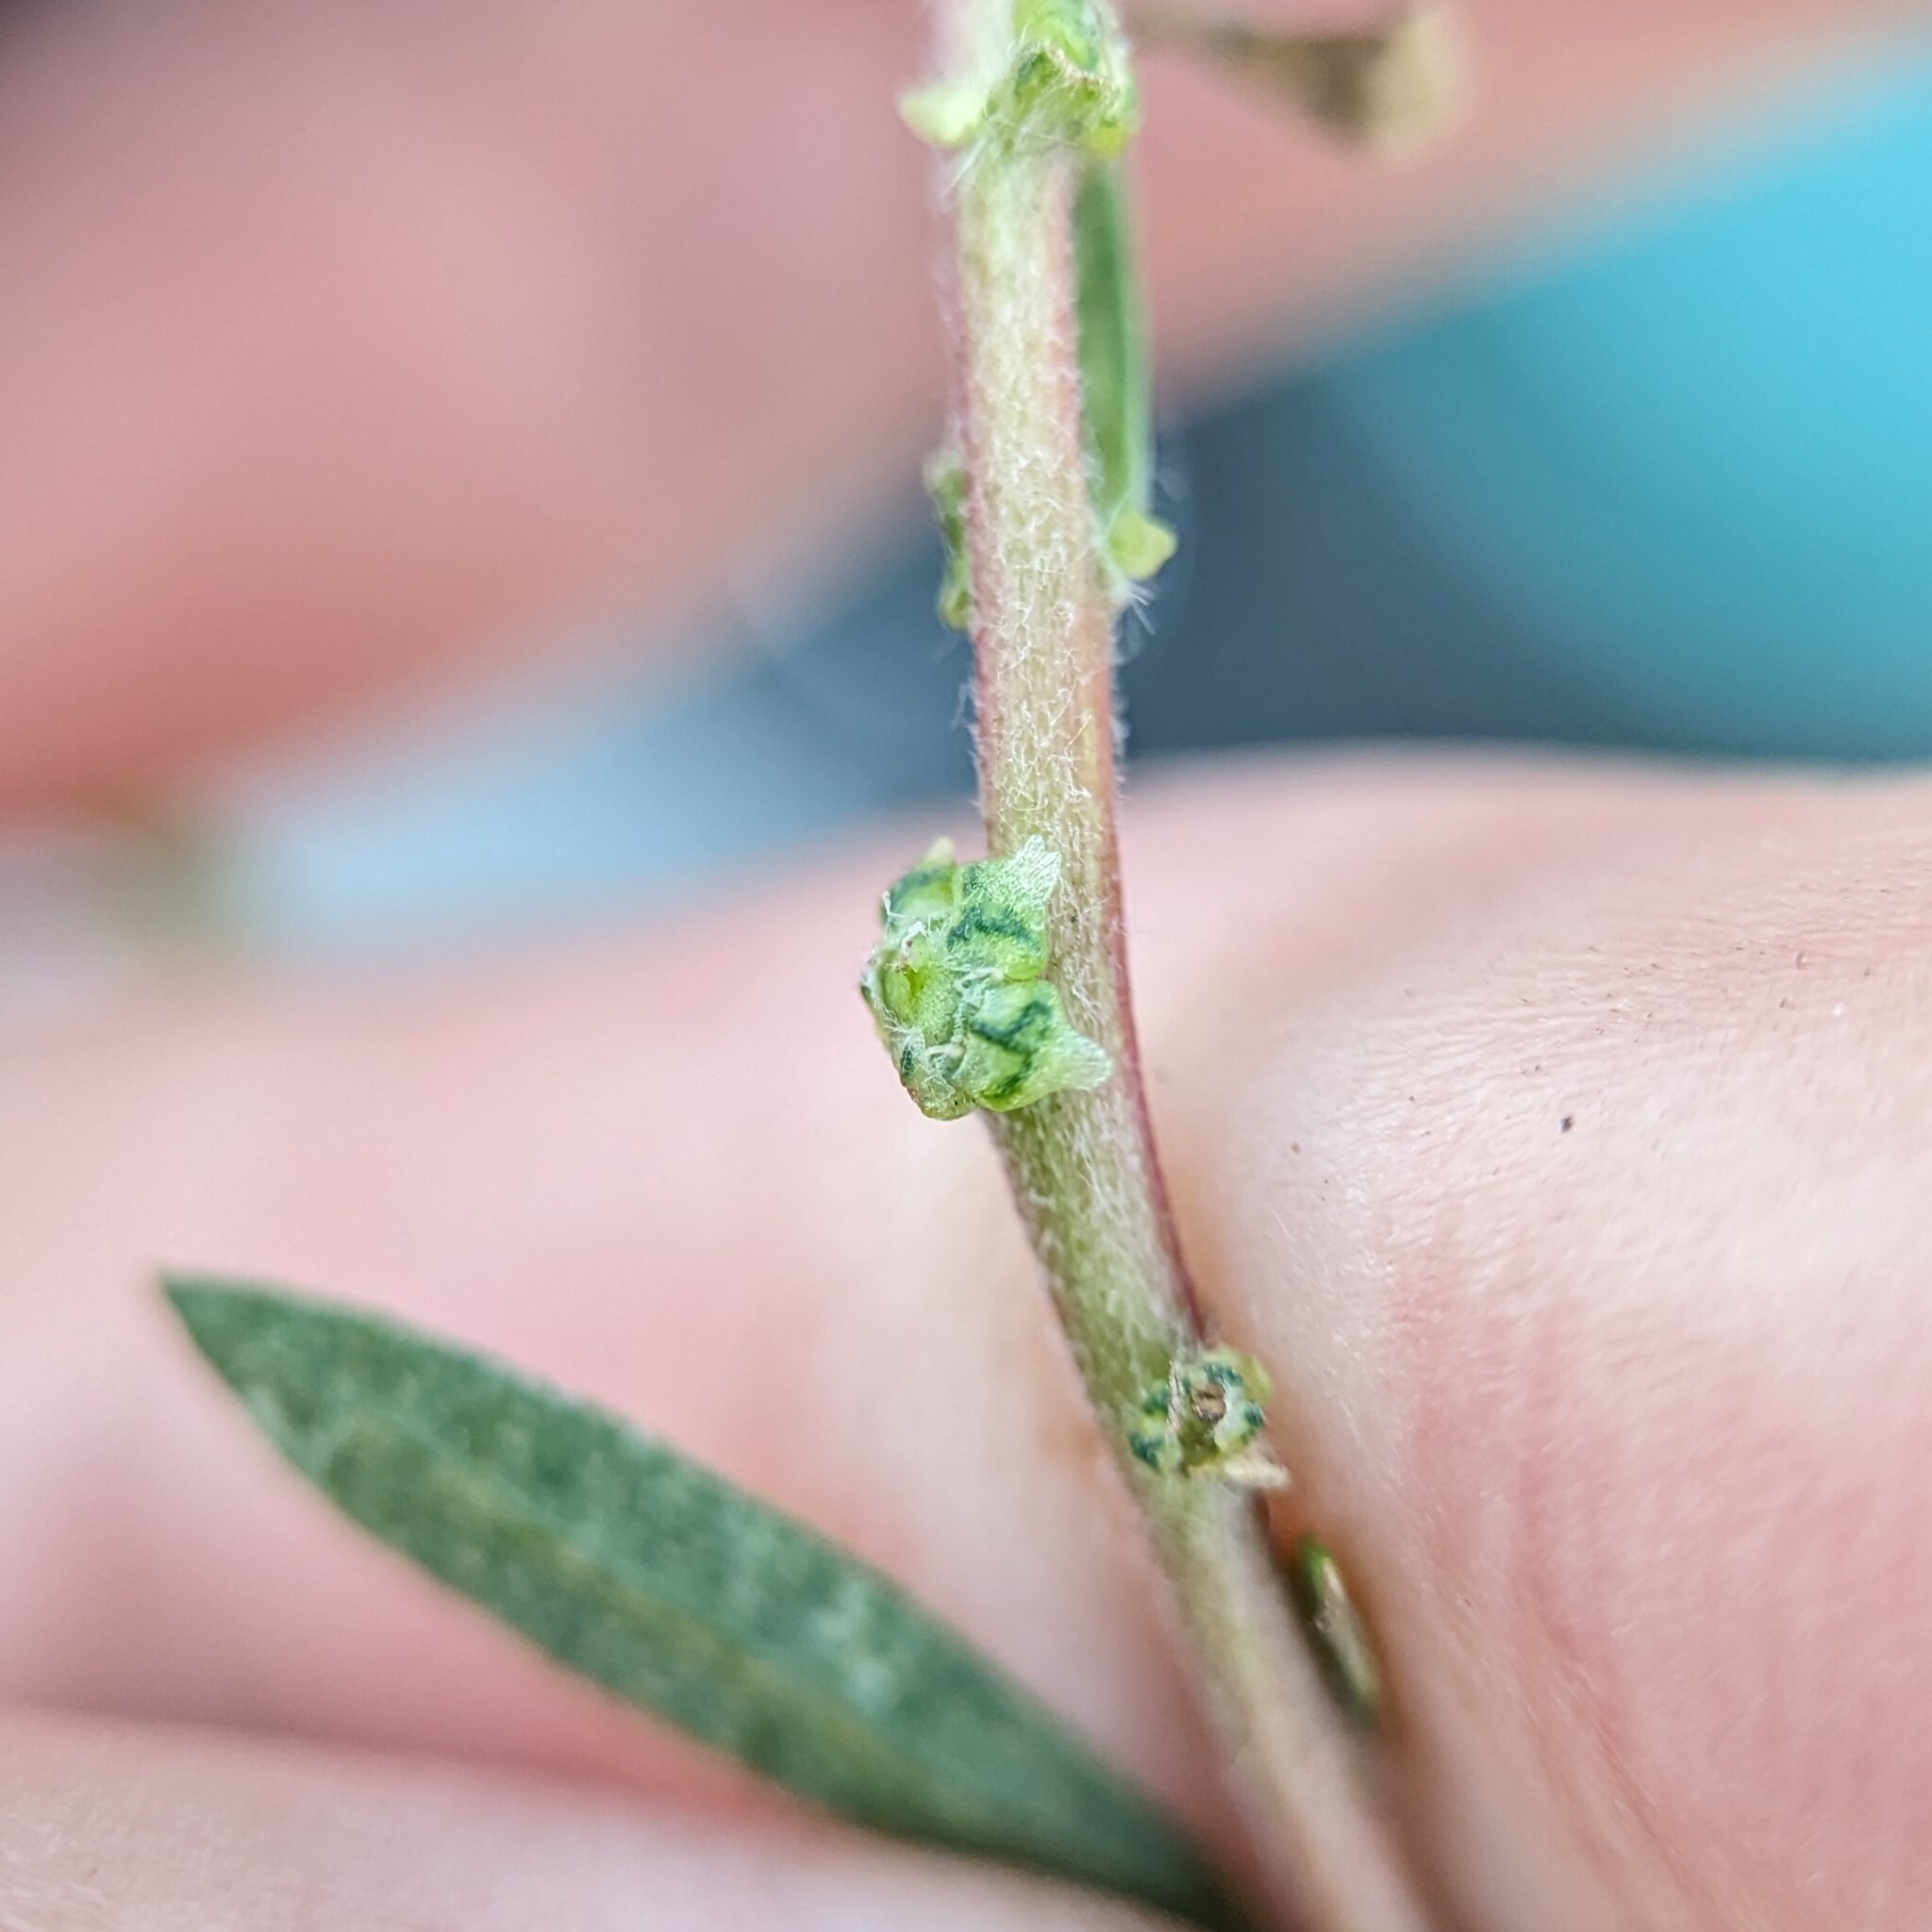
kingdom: Plantae
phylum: Tracheophyta
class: Magnoliopsida
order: Caryophyllales
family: Amaranthaceae
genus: Bassia
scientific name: Bassia scoparia
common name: Belvedere
